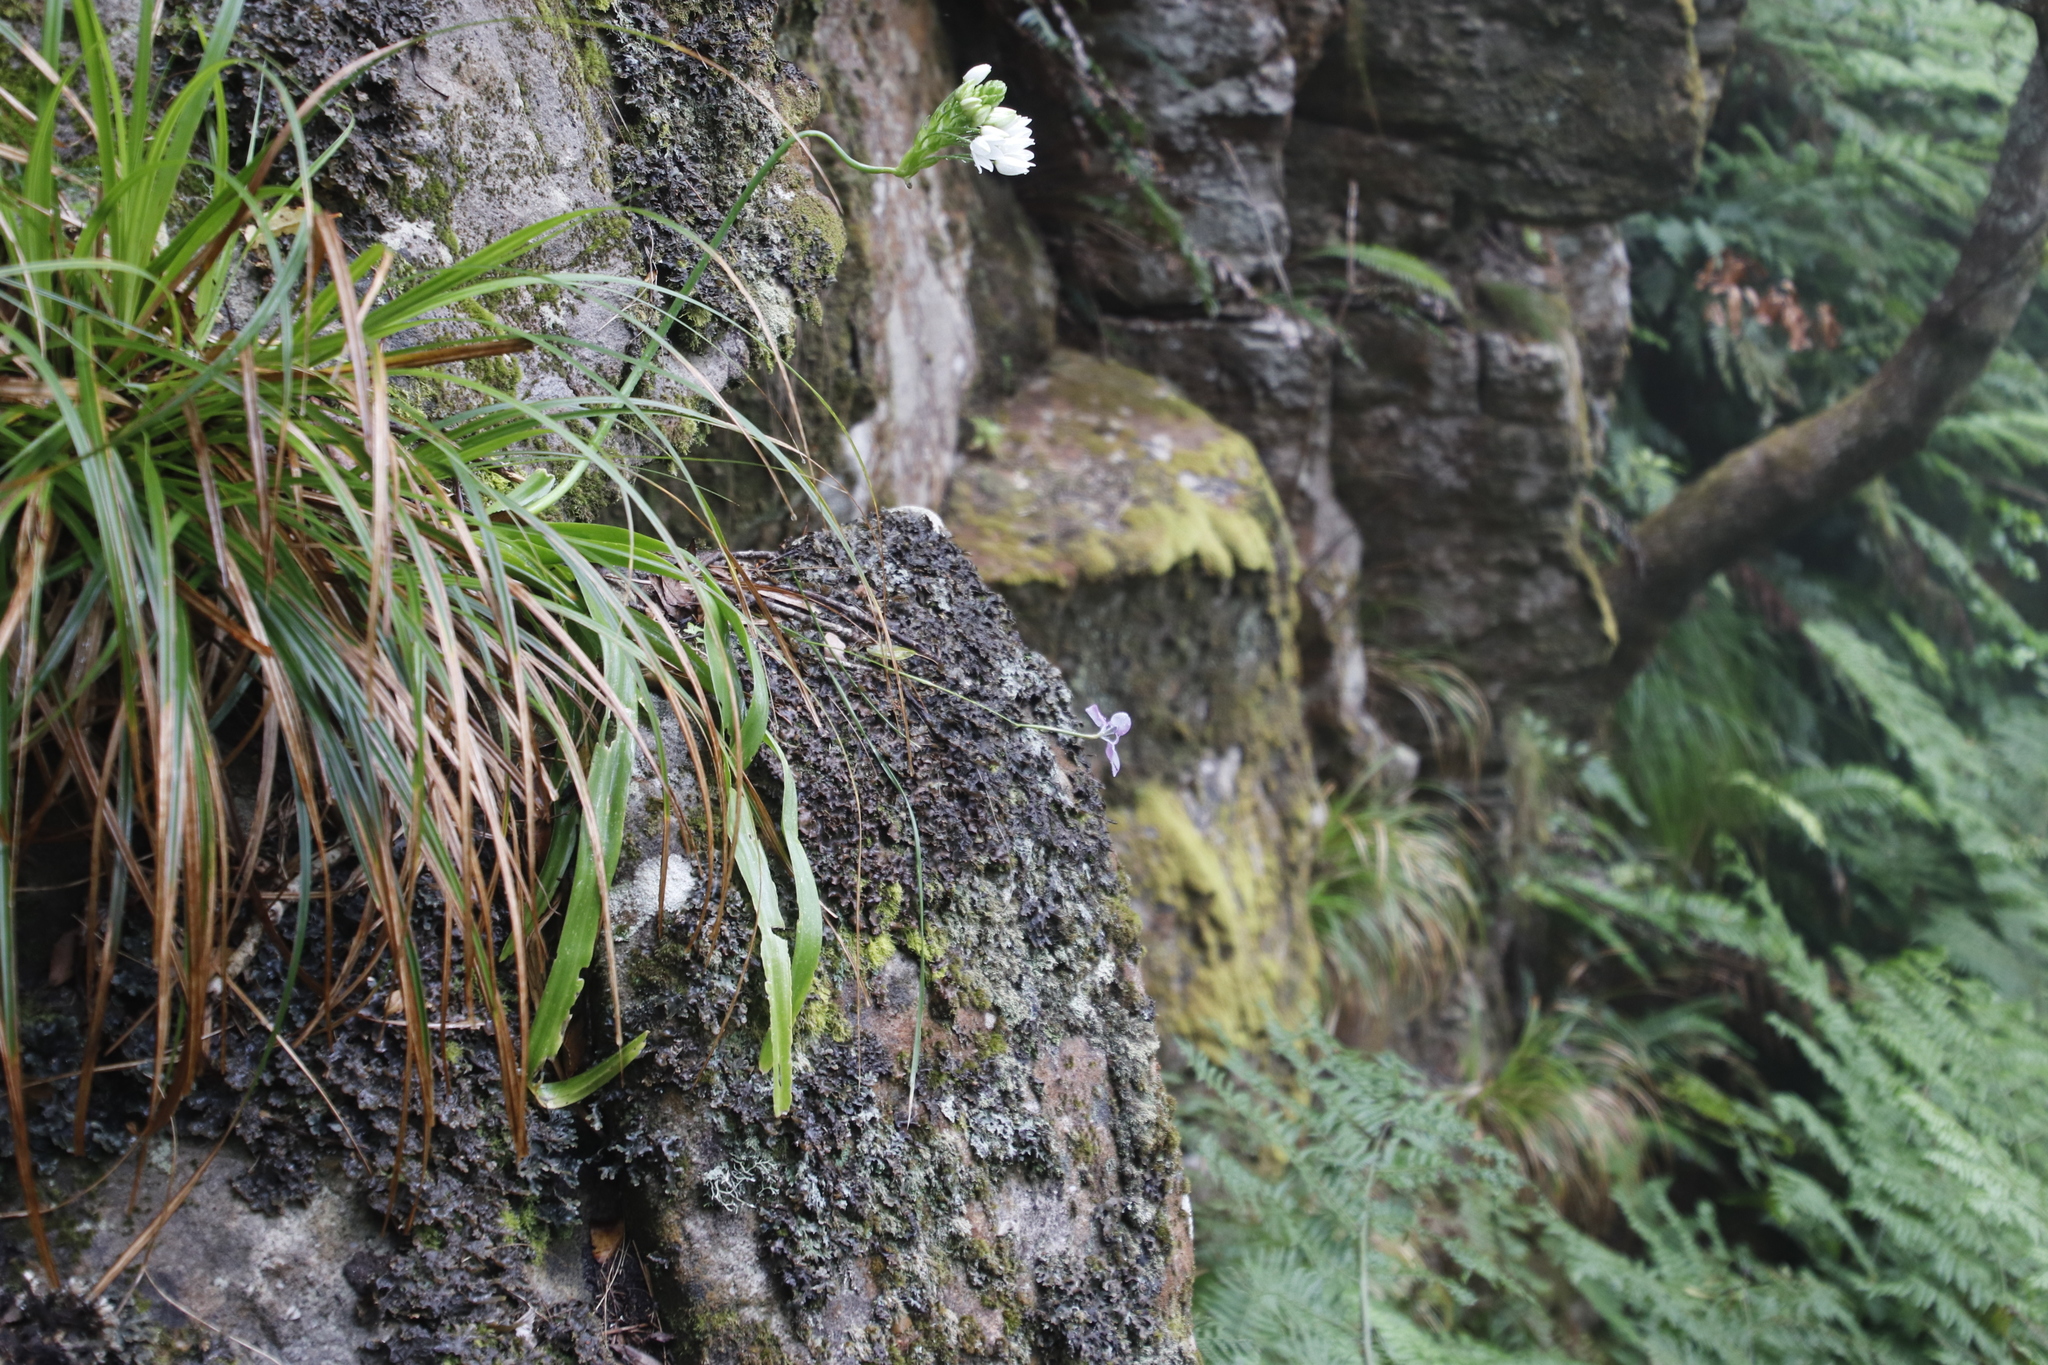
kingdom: Plantae
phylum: Tracheophyta
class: Liliopsida
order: Asparagales
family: Iridaceae
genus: Moraea
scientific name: Moraea tripetala
